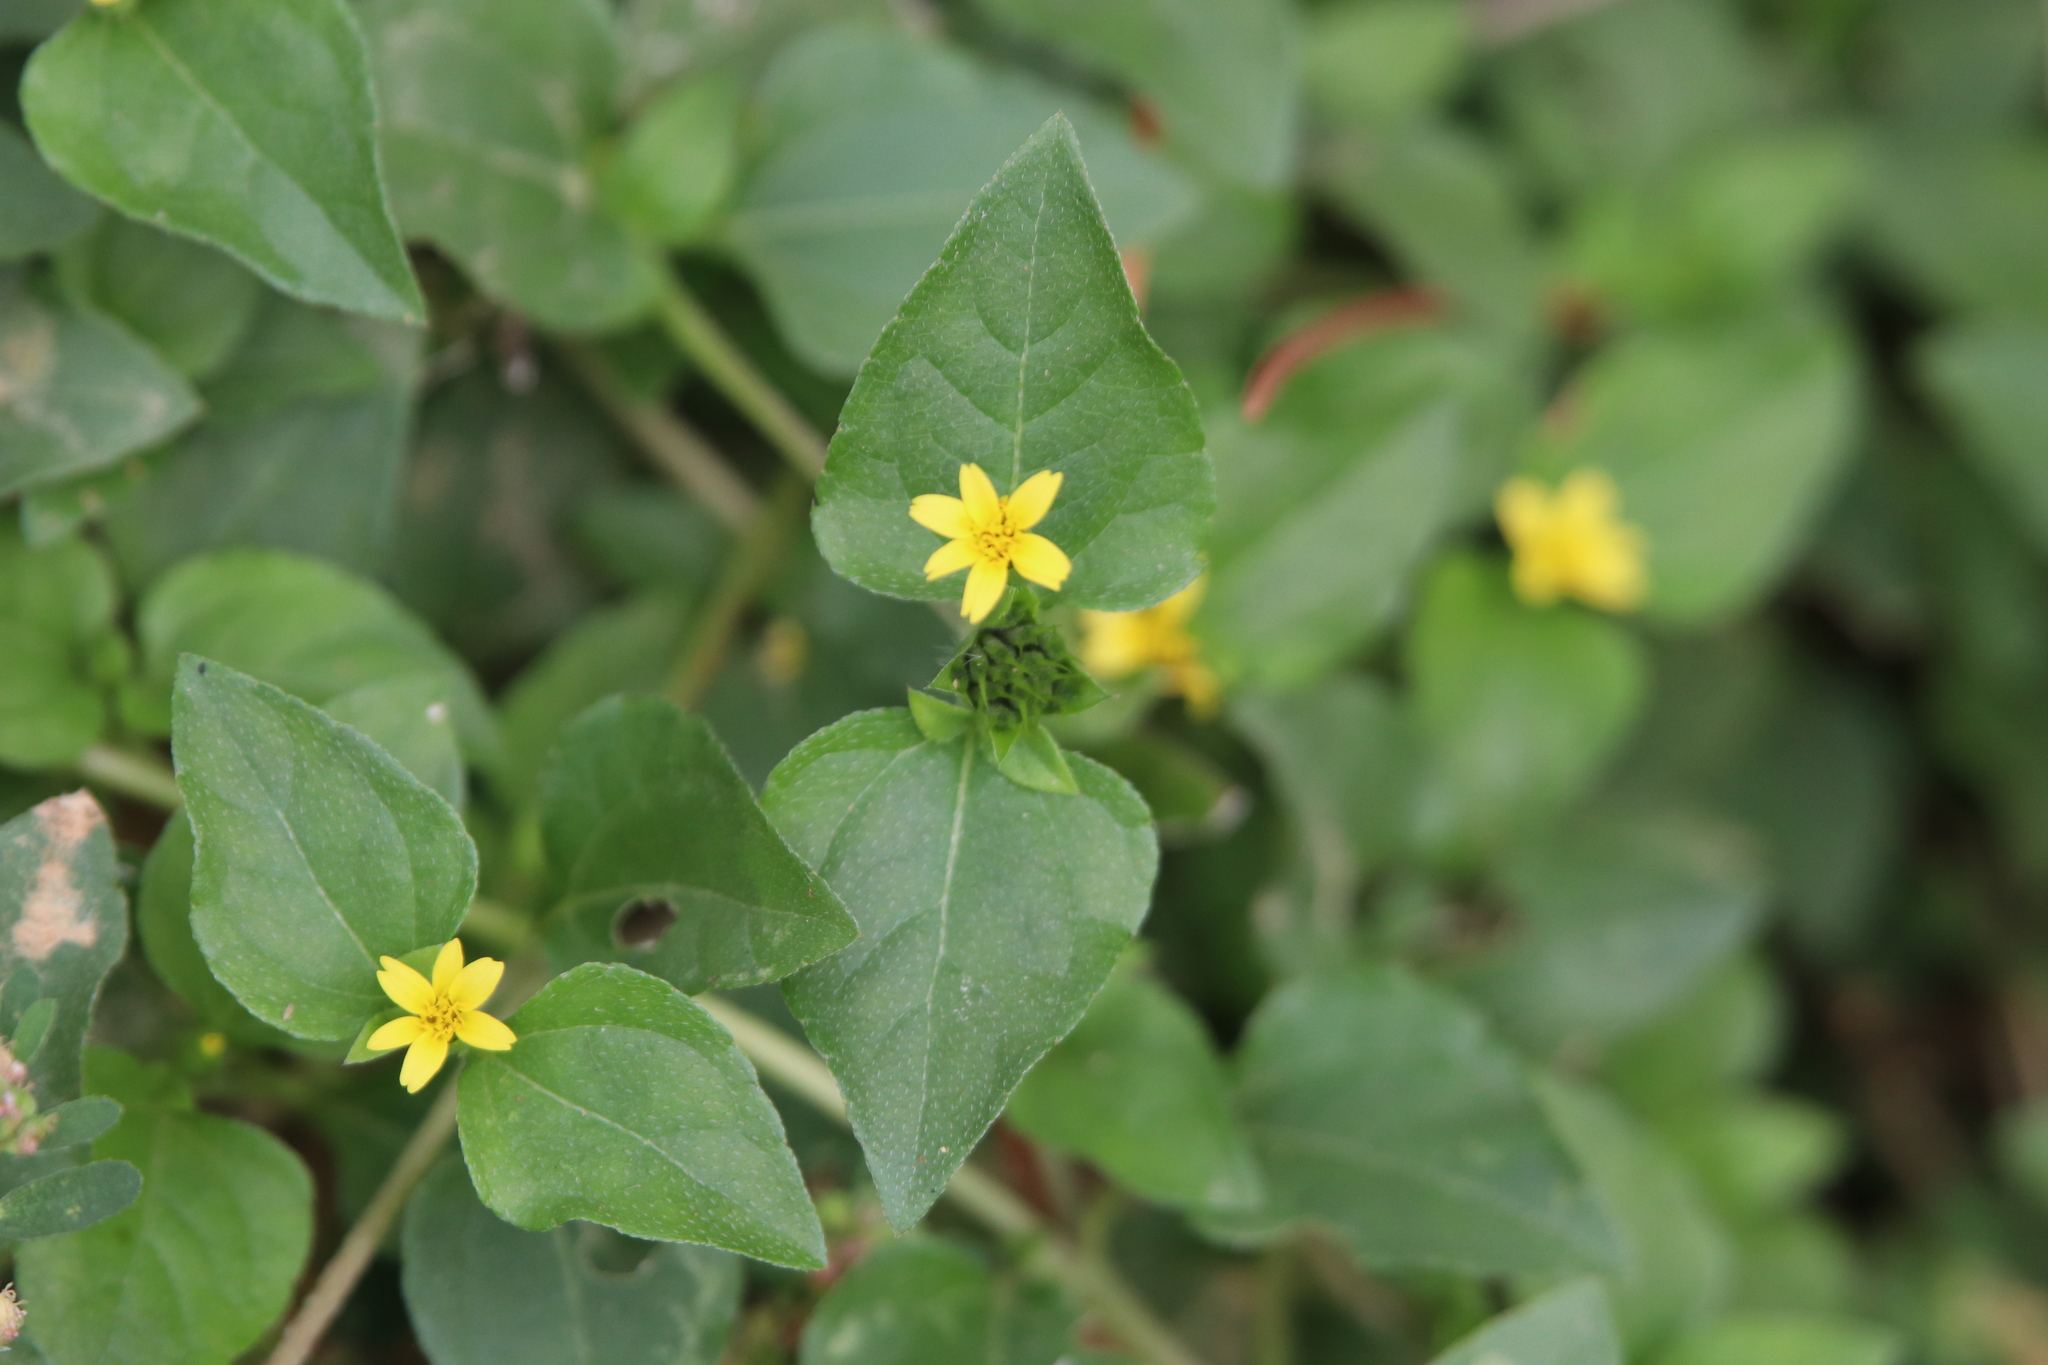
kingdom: Plantae
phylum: Tracheophyta
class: Magnoliopsida
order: Asterales
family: Asteraceae
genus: Calyptocarpus
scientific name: Calyptocarpus vialis
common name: Straggler daisy
